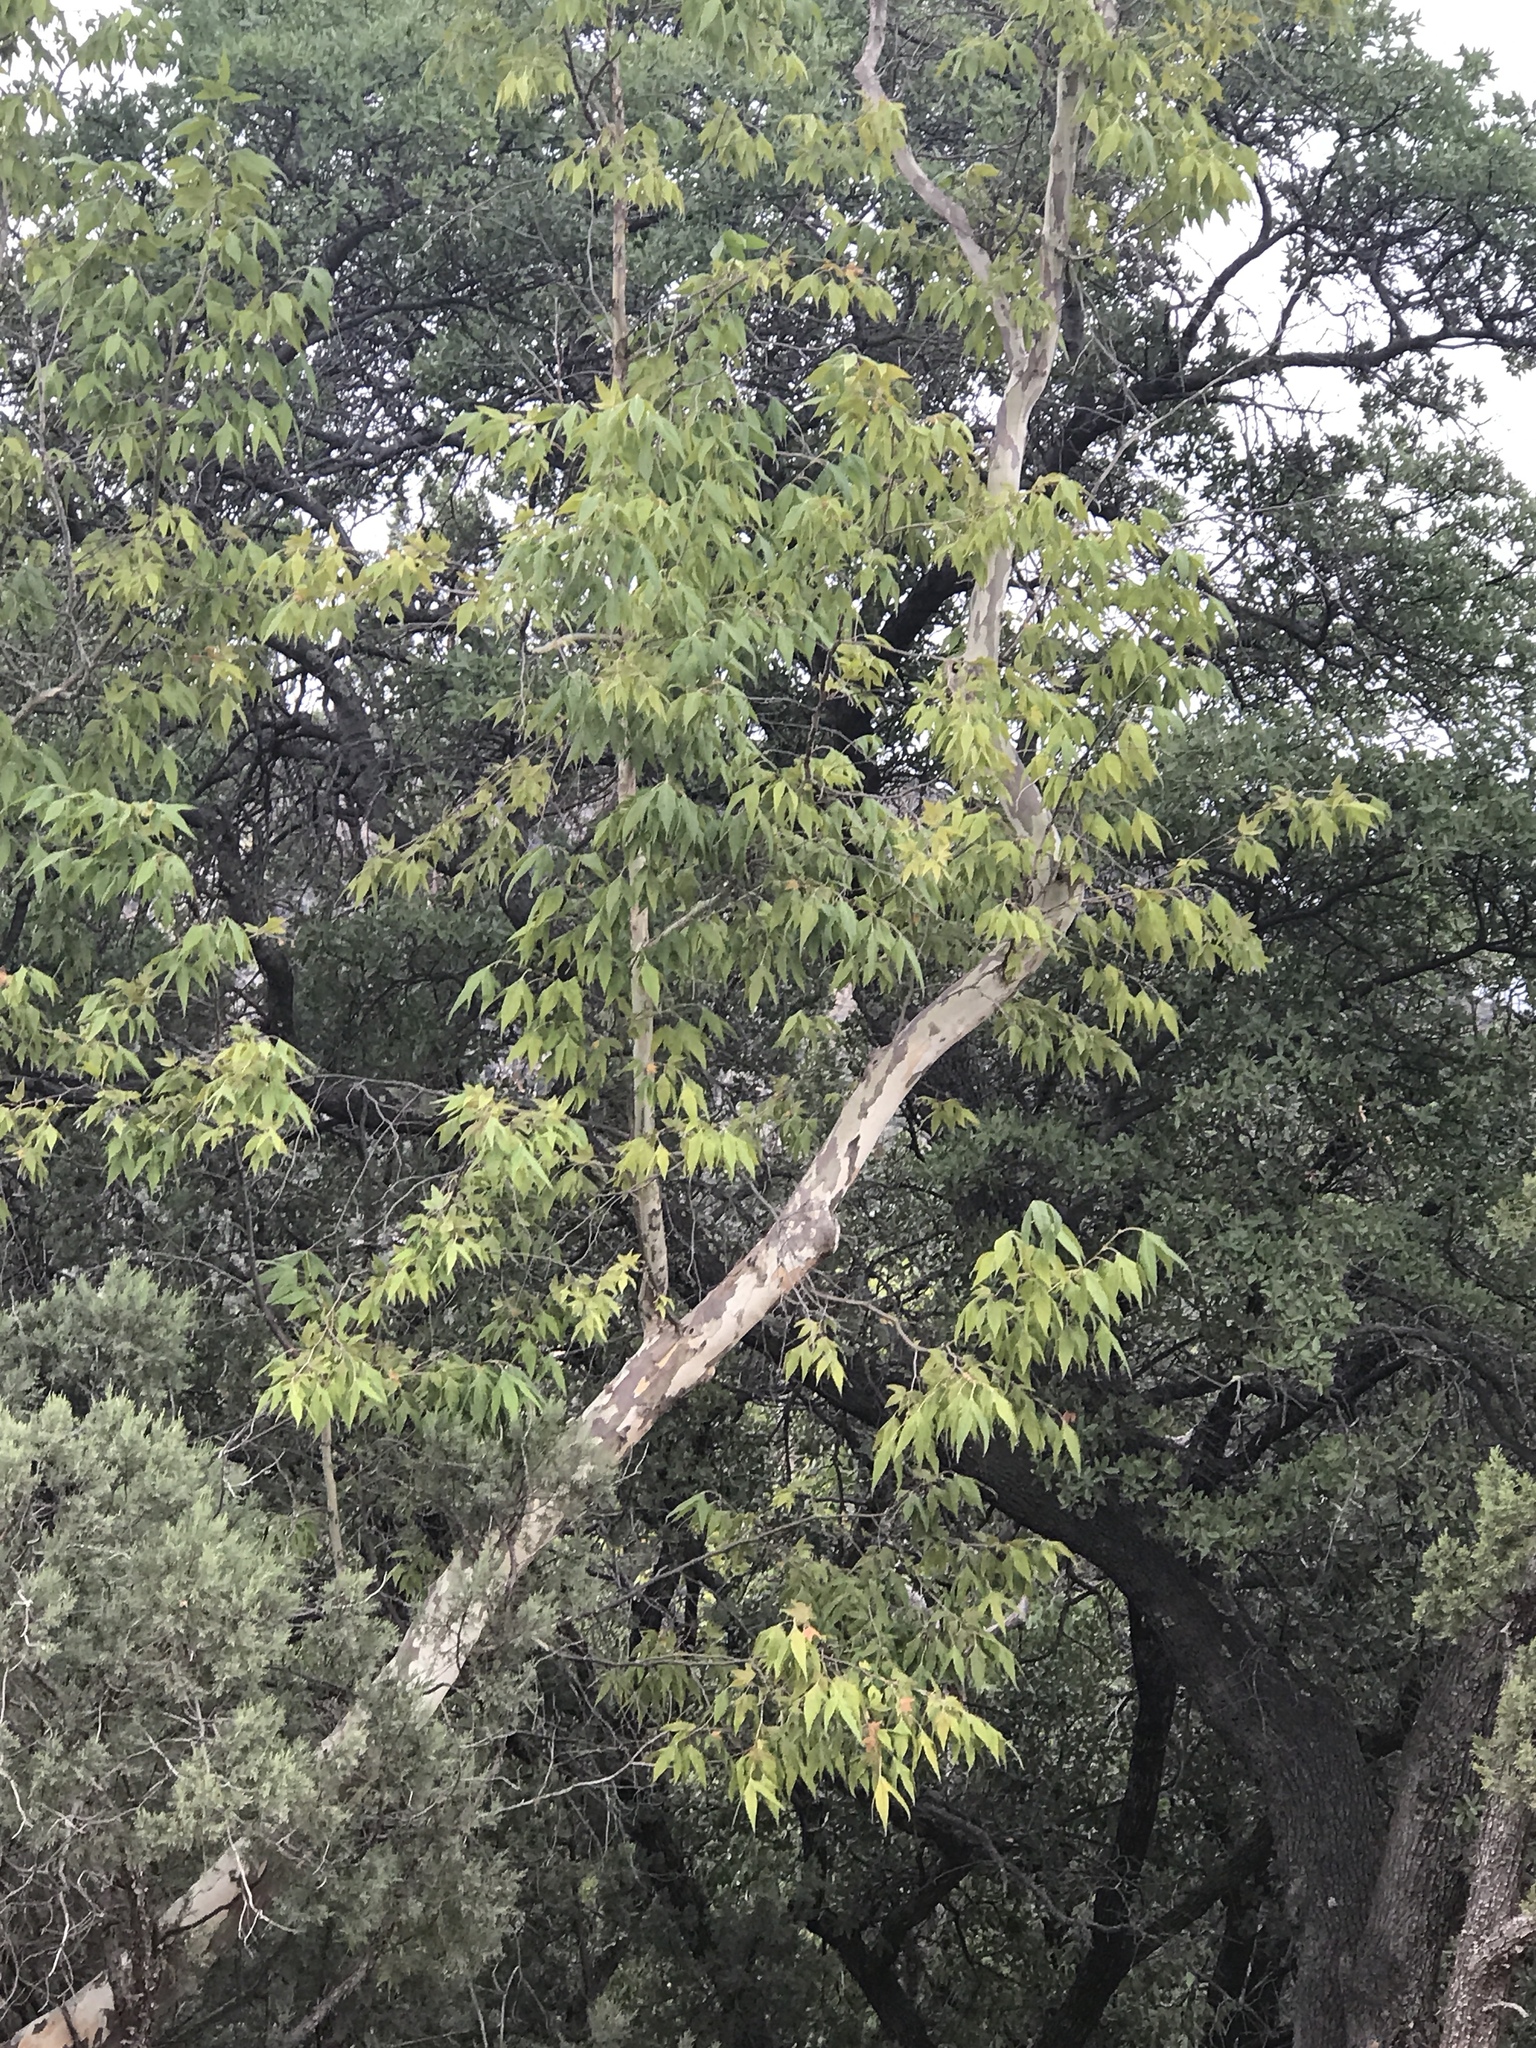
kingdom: Plantae
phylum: Tracheophyta
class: Magnoliopsida
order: Proteales
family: Platanaceae
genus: Platanus
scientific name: Platanus wrightii
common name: Arizona sycamore
